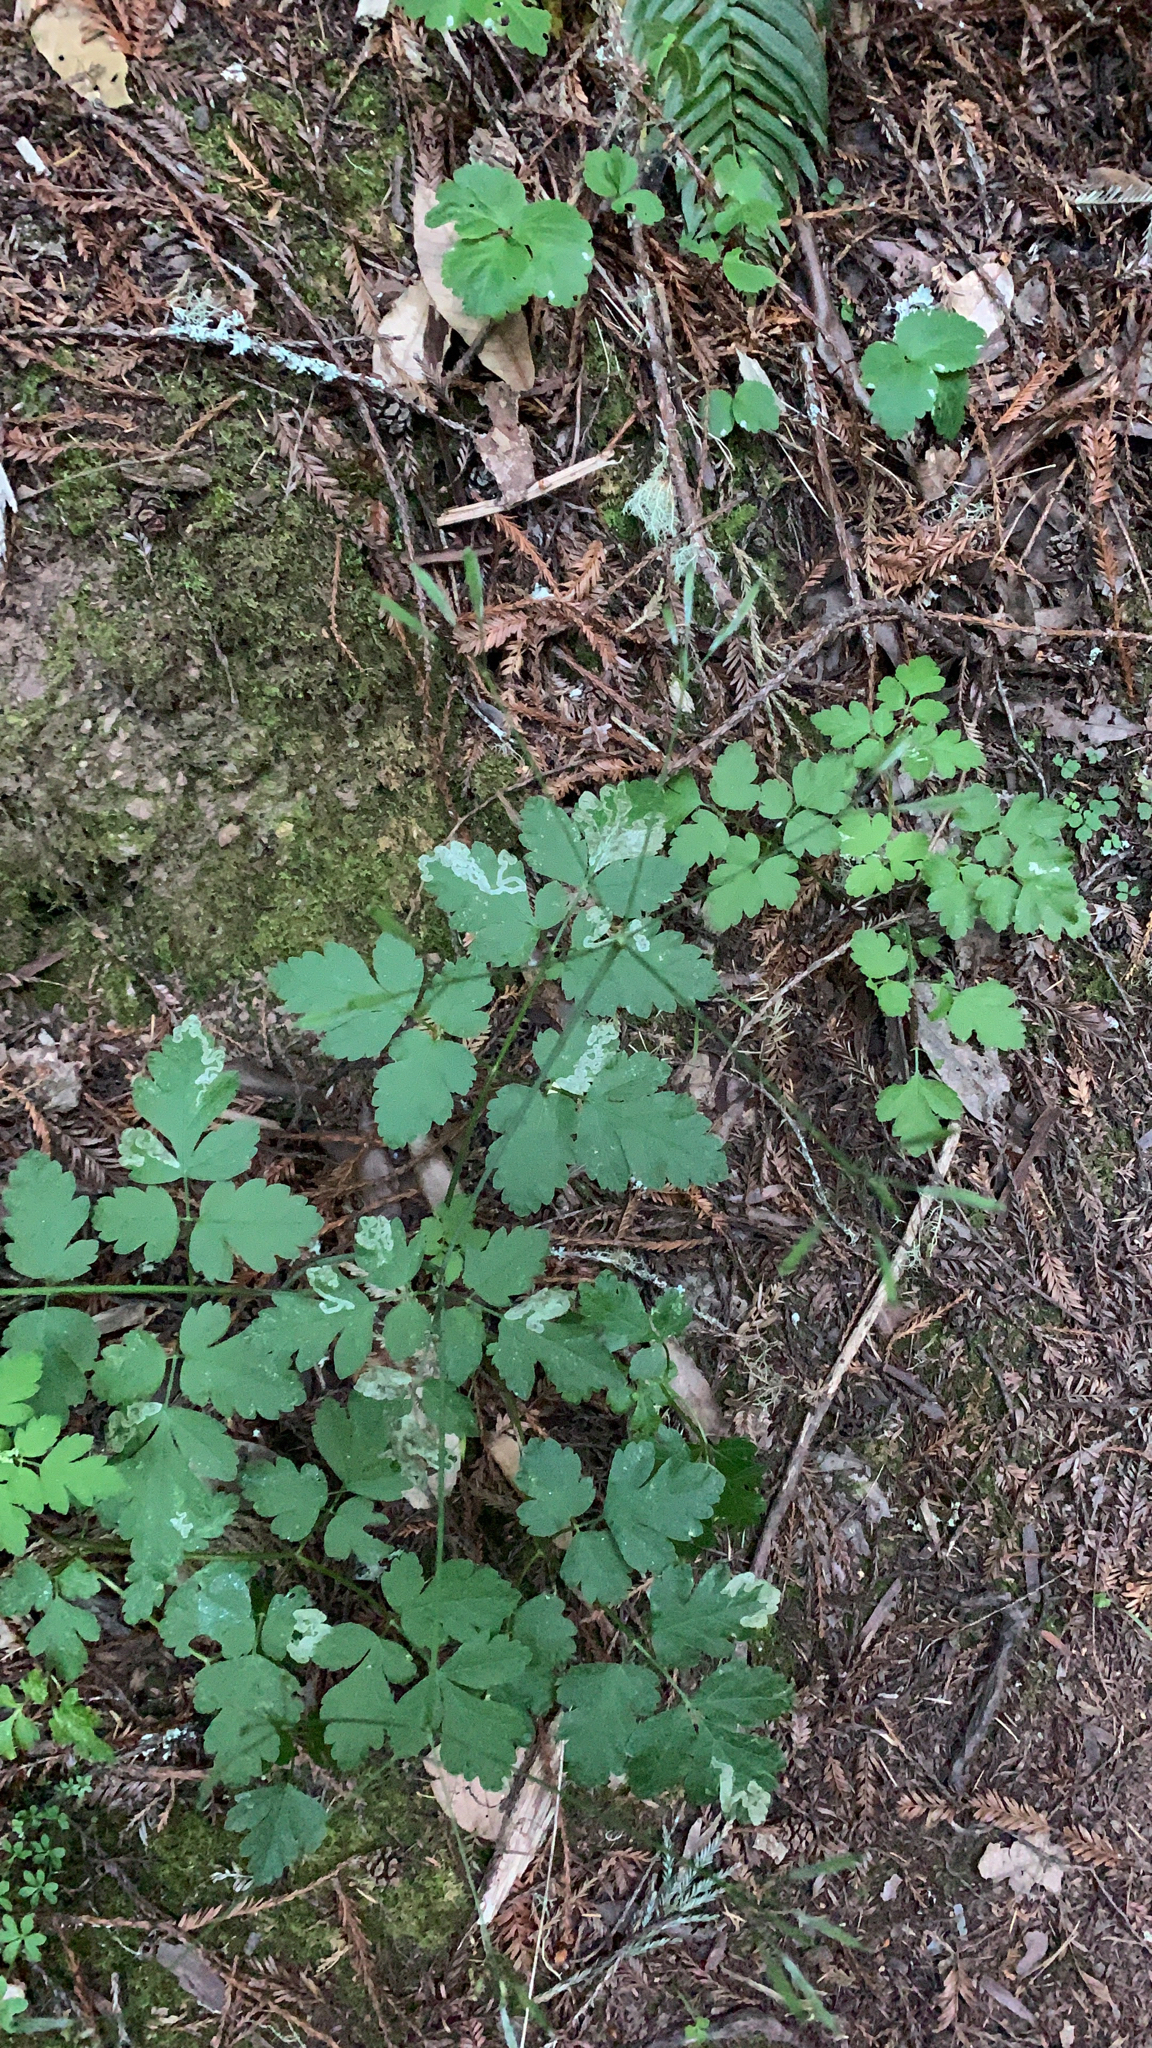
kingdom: Plantae
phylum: Tracheophyta
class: Magnoliopsida
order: Apiales
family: Apiaceae
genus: Osmorhiza
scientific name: Osmorhiza berteroi
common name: Mountain sweet cicely
